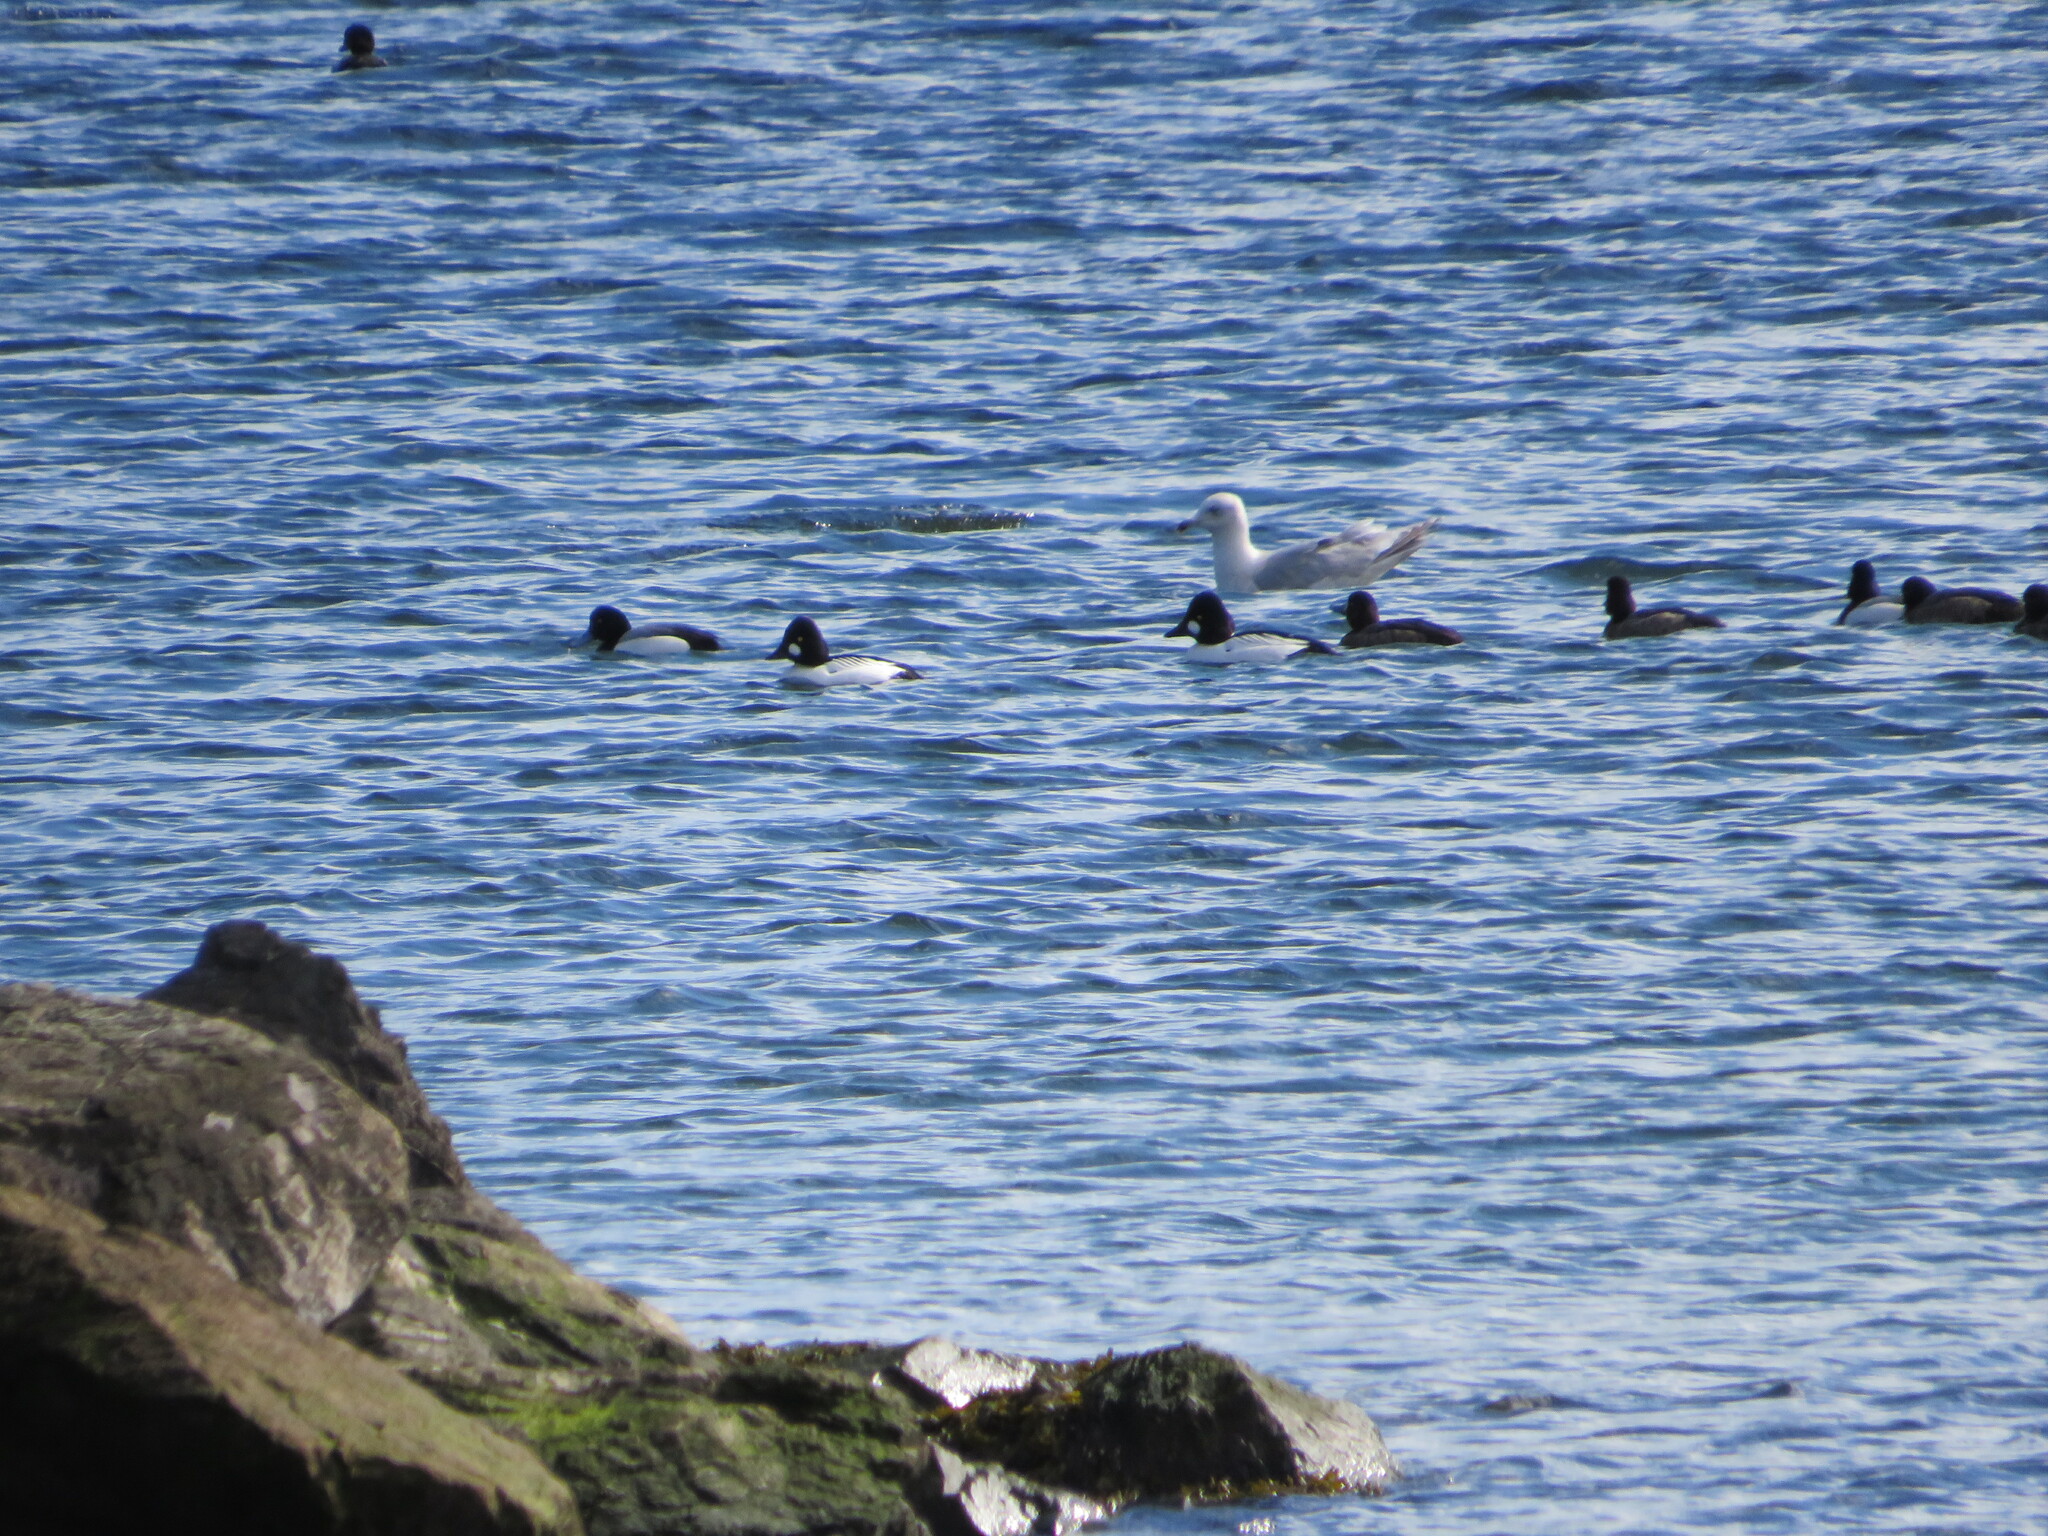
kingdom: Animalia
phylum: Chordata
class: Aves
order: Anseriformes
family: Anatidae
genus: Bucephala
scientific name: Bucephala clangula
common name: Common goldeneye
